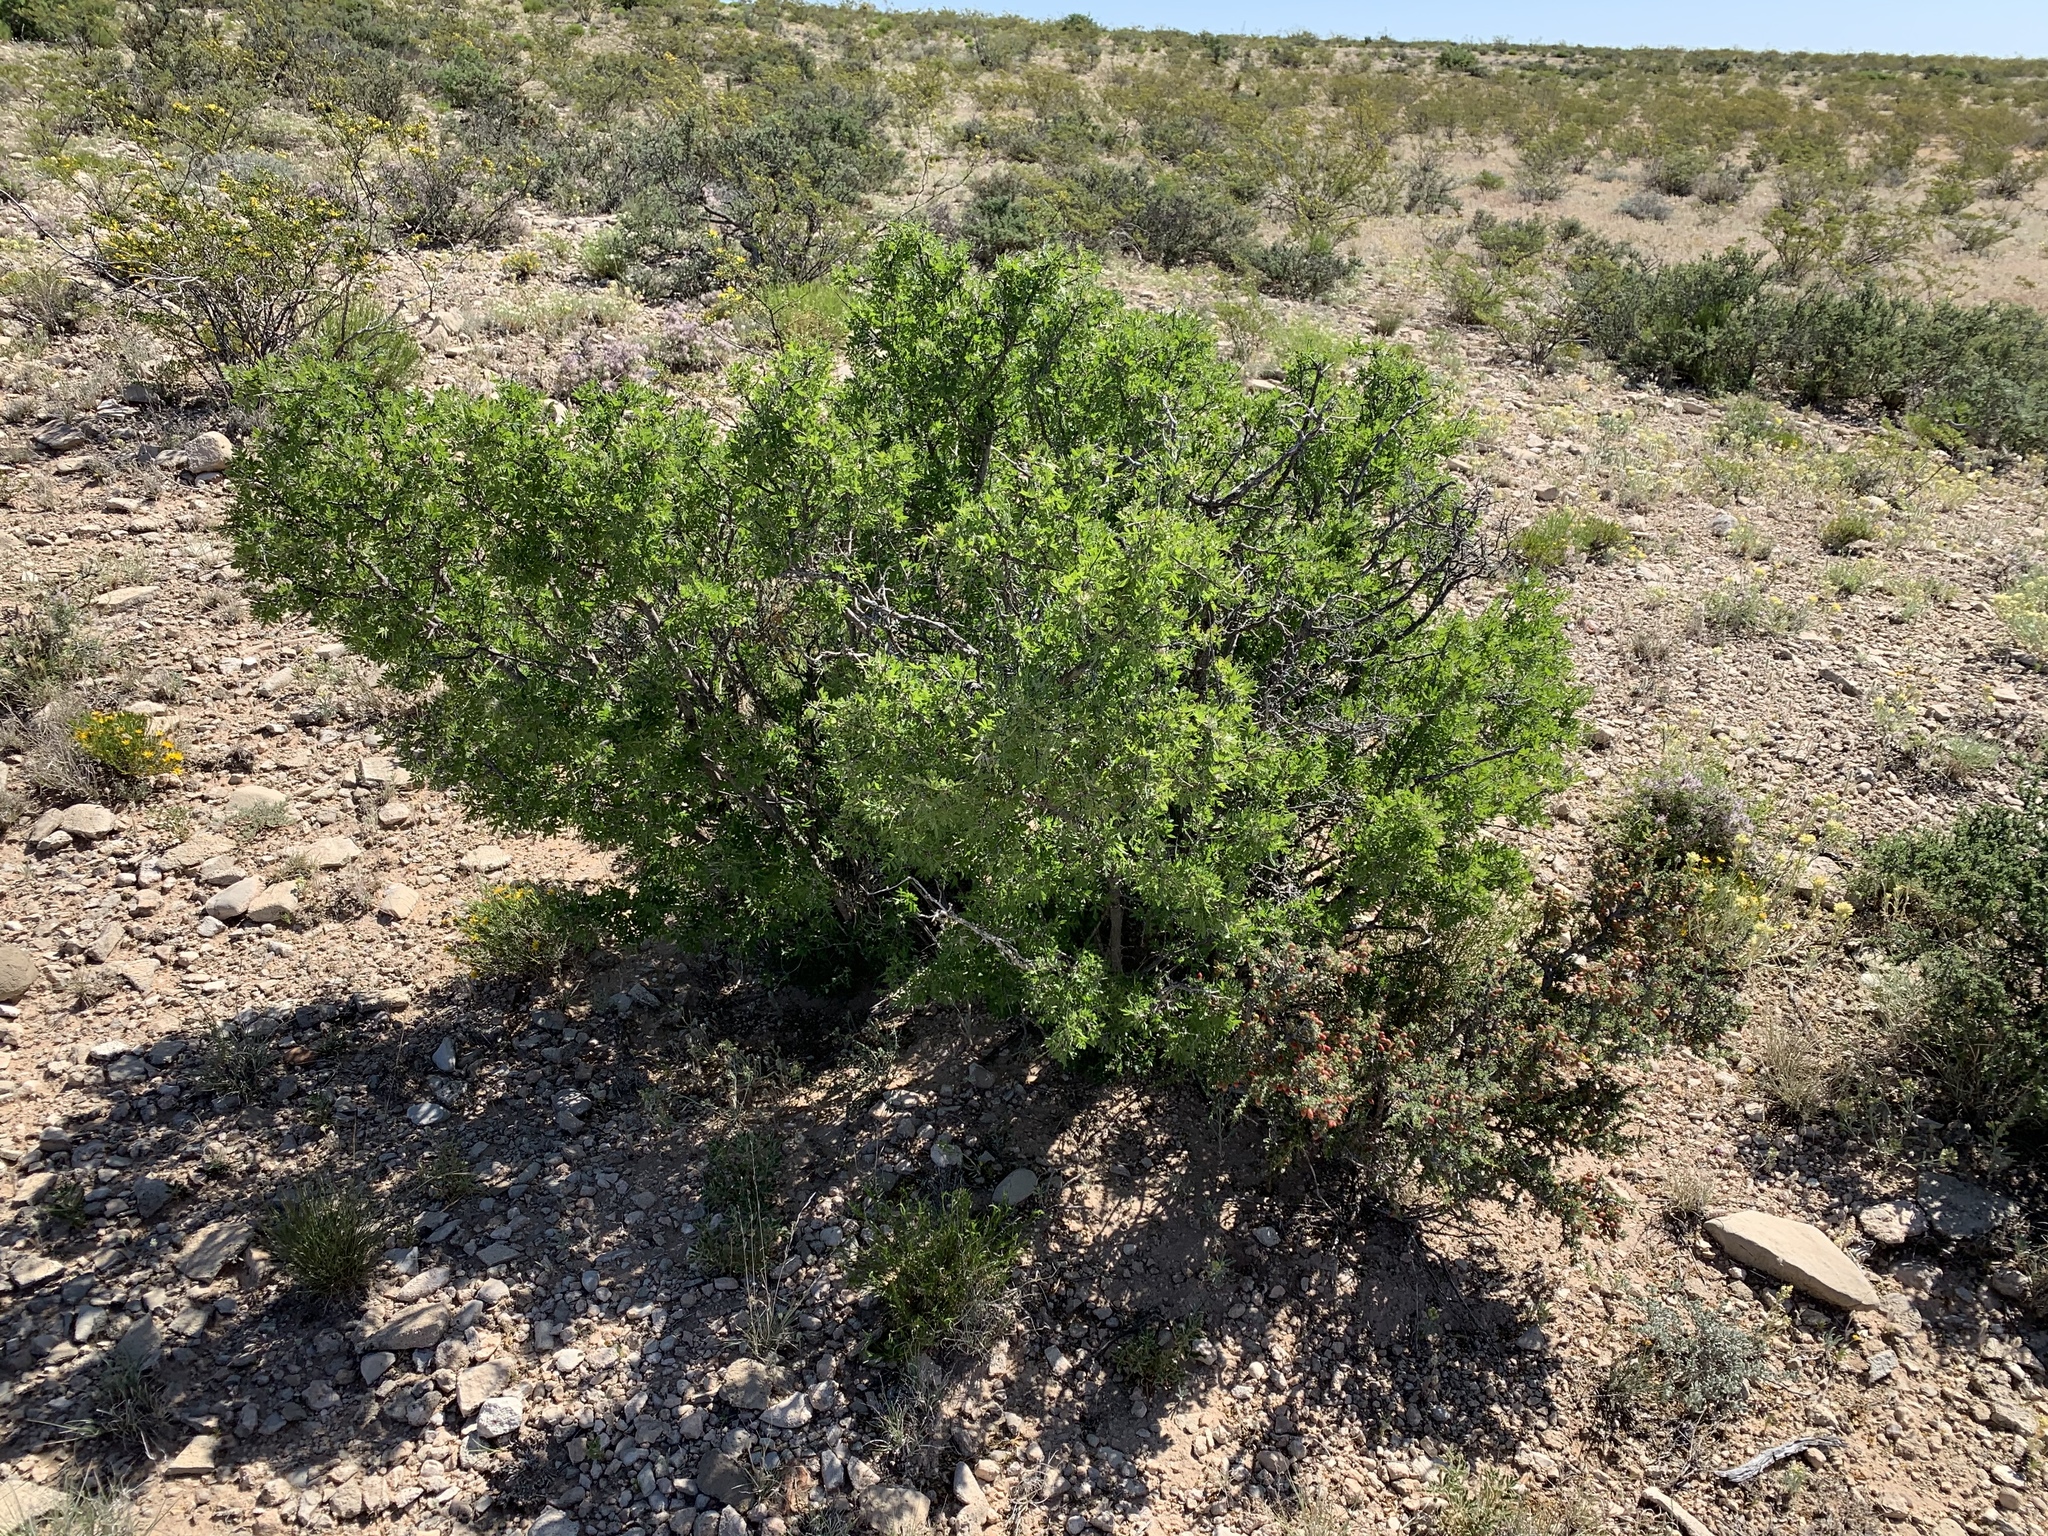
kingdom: Plantae
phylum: Tracheophyta
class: Magnoliopsida
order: Sapindales
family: Anacardiaceae
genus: Rhus
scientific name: Rhus microphylla
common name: Desert sumac
